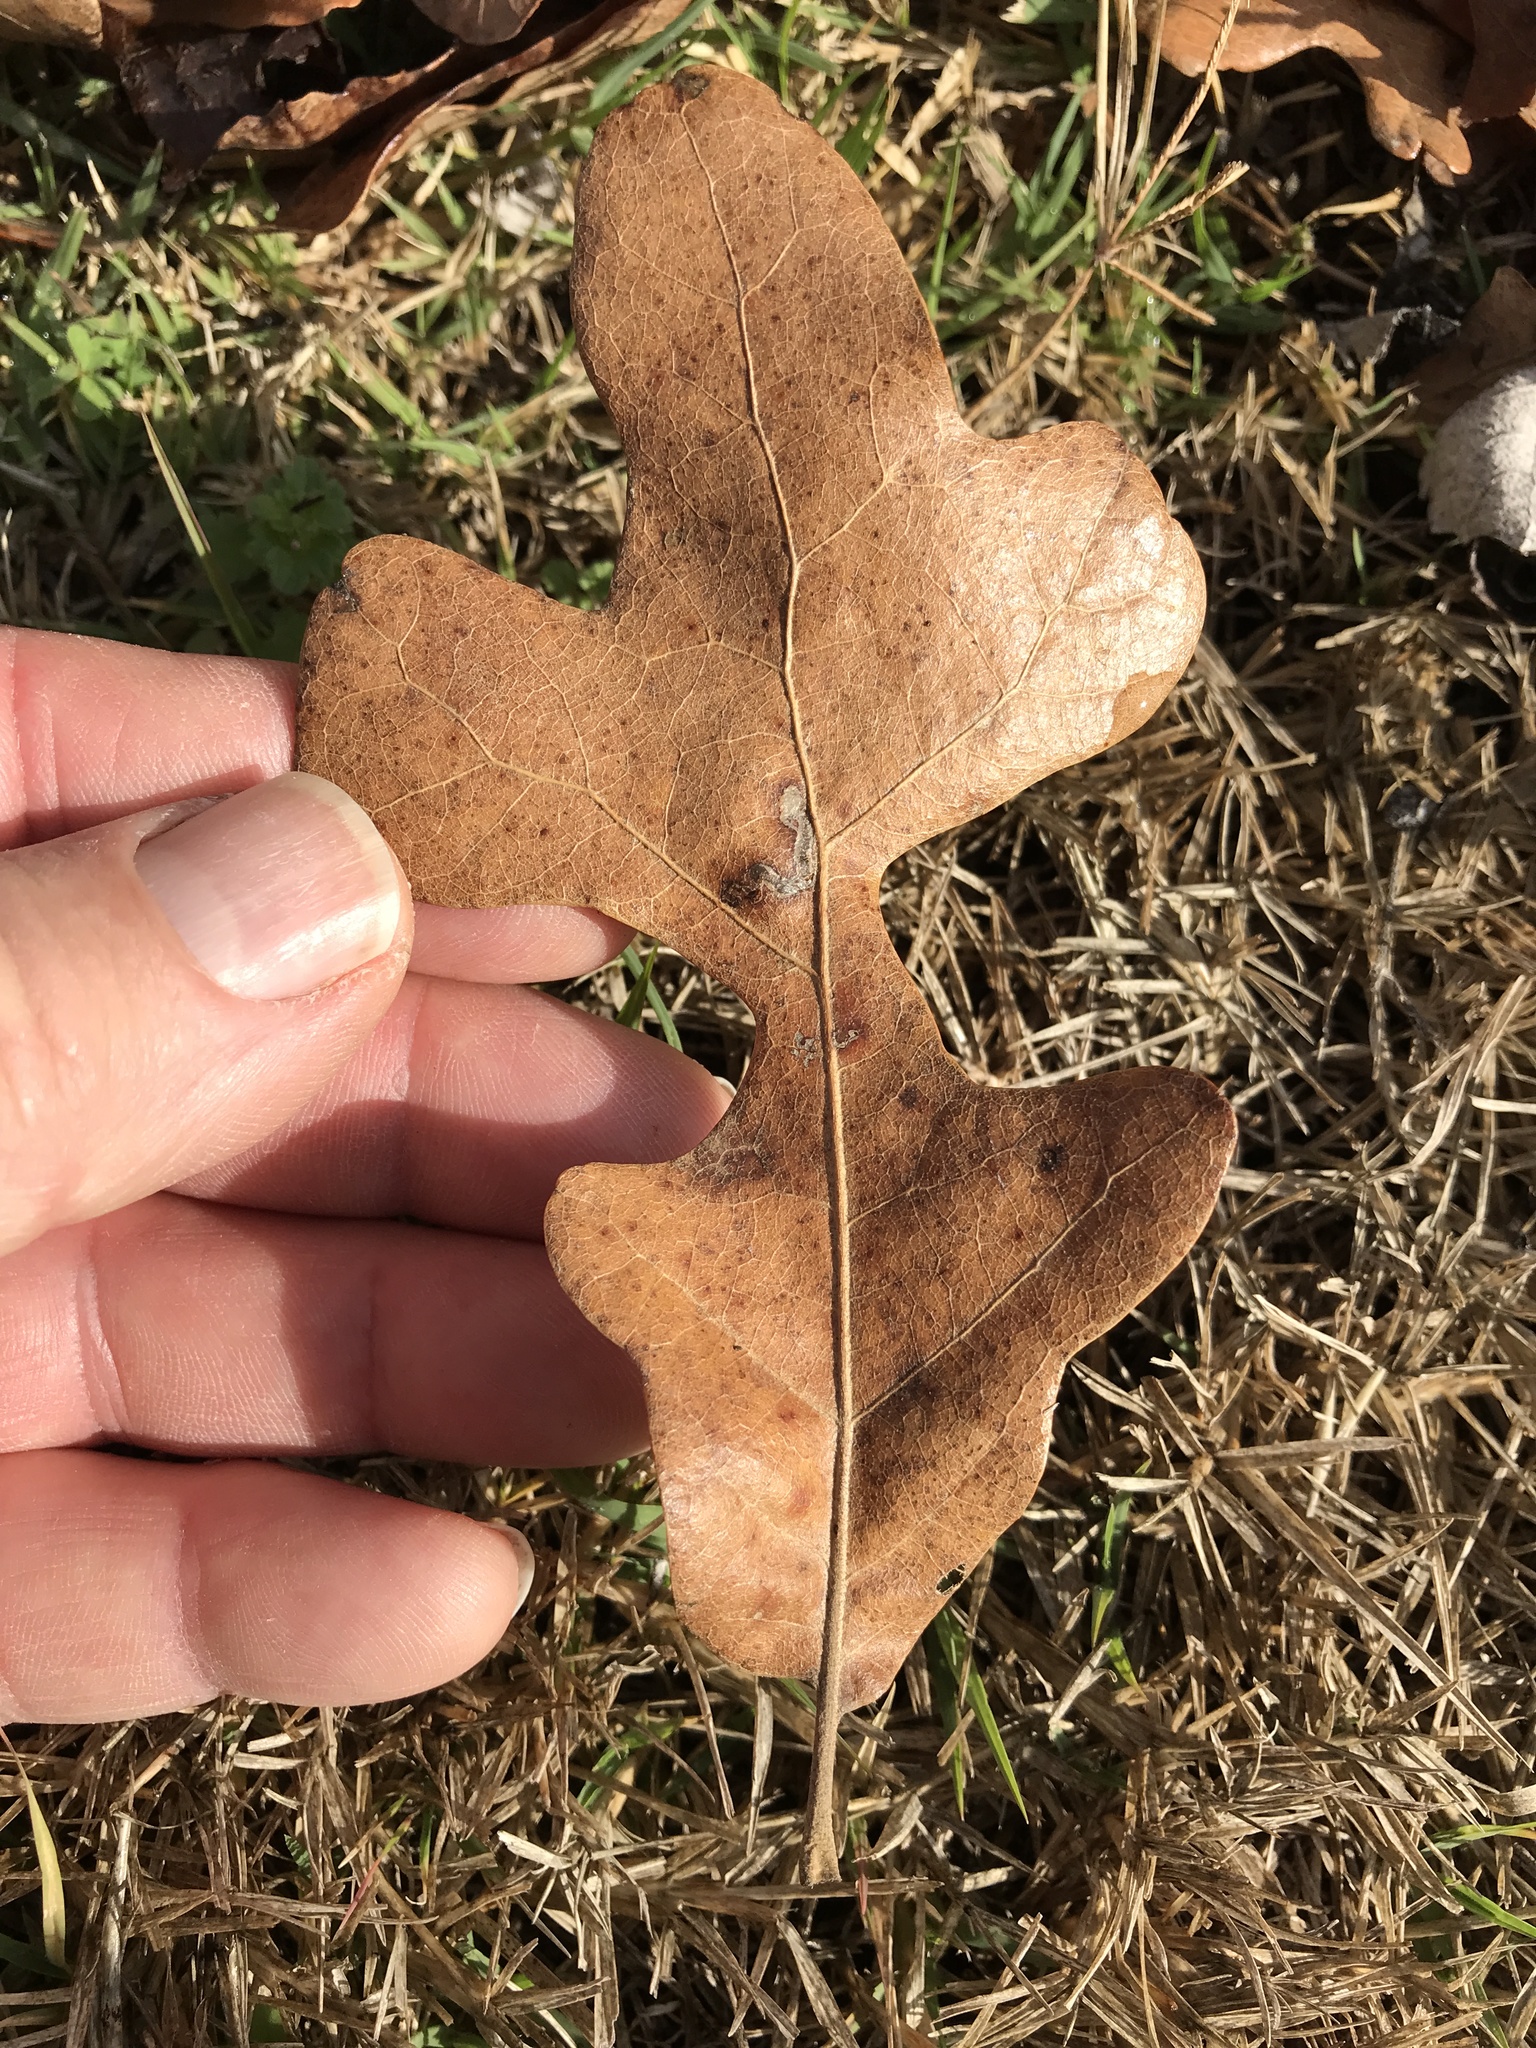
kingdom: Plantae
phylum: Tracheophyta
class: Magnoliopsida
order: Fagales
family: Fagaceae
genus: Quercus
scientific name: Quercus stellata
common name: Post oak
